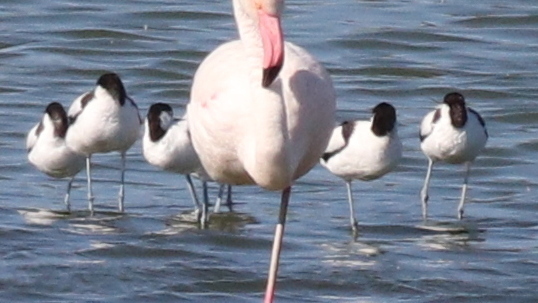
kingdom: Animalia
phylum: Chordata
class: Aves
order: Charadriiformes
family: Recurvirostridae
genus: Recurvirostra
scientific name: Recurvirostra avosetta
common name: Pied avocet
